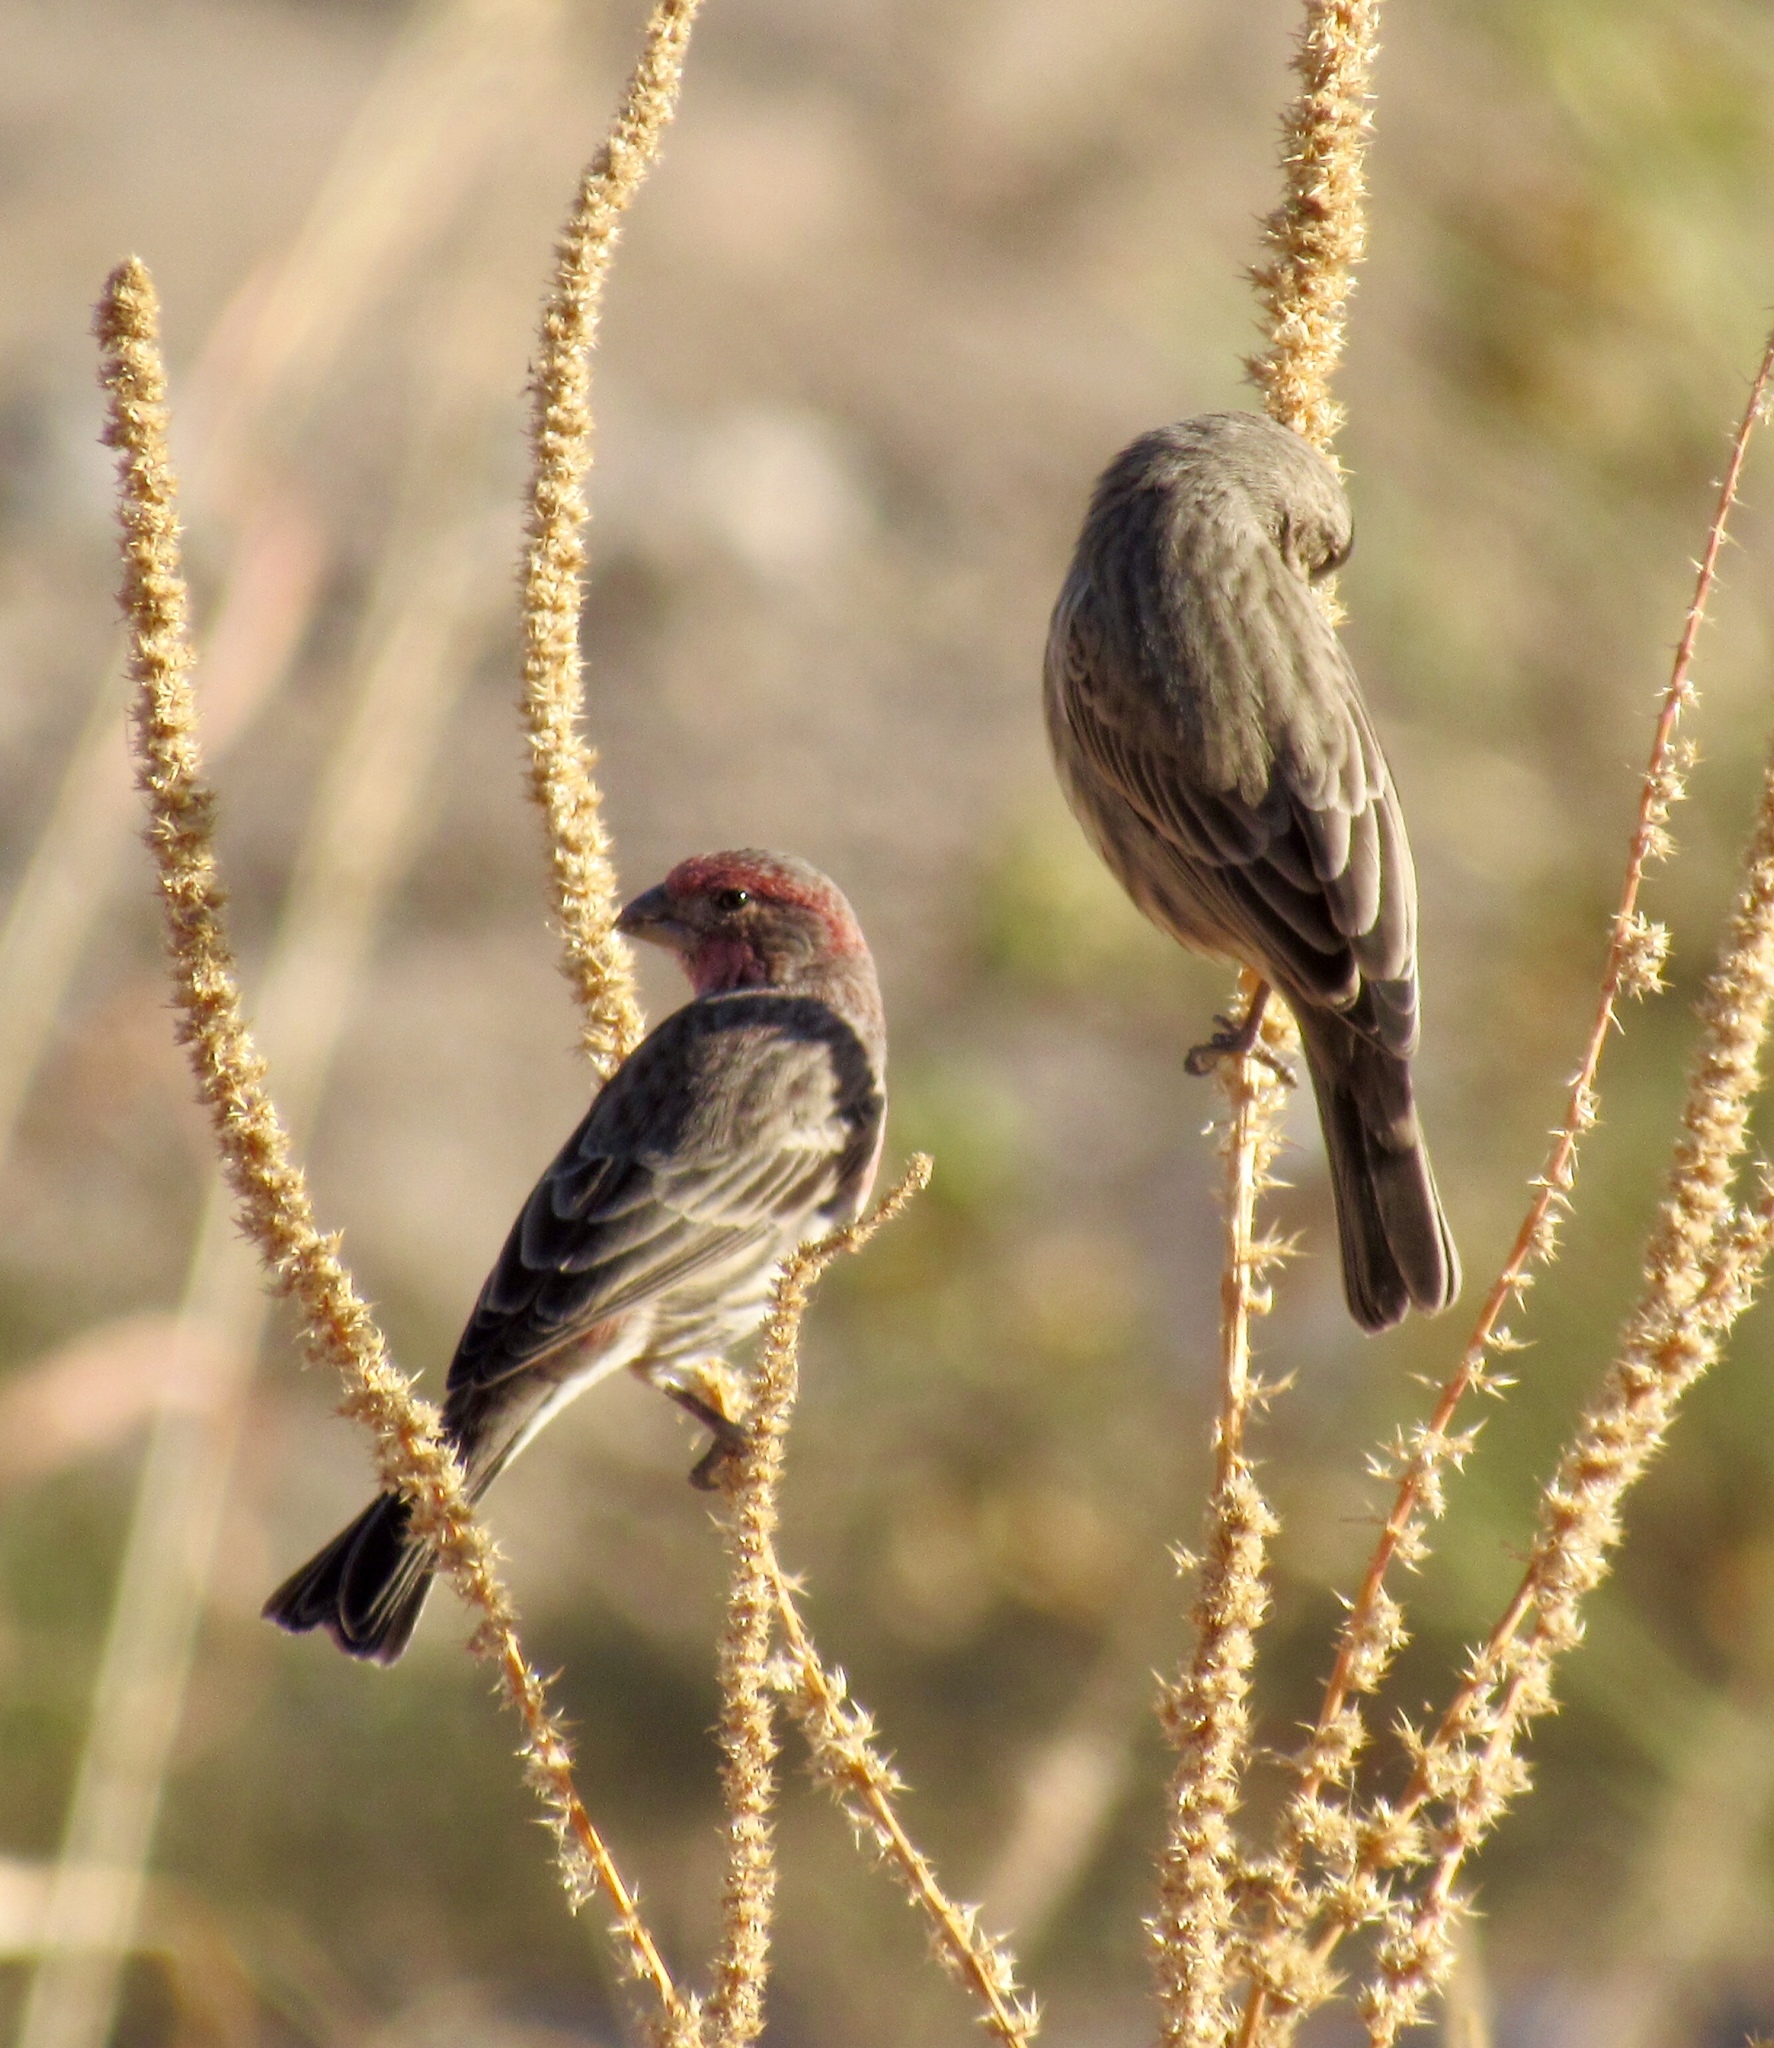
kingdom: Animalia
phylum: Chordata
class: Aves
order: Passeriformes
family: Fringillidae
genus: Haemorhous
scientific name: Haemorhous mexicanus
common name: House finch
